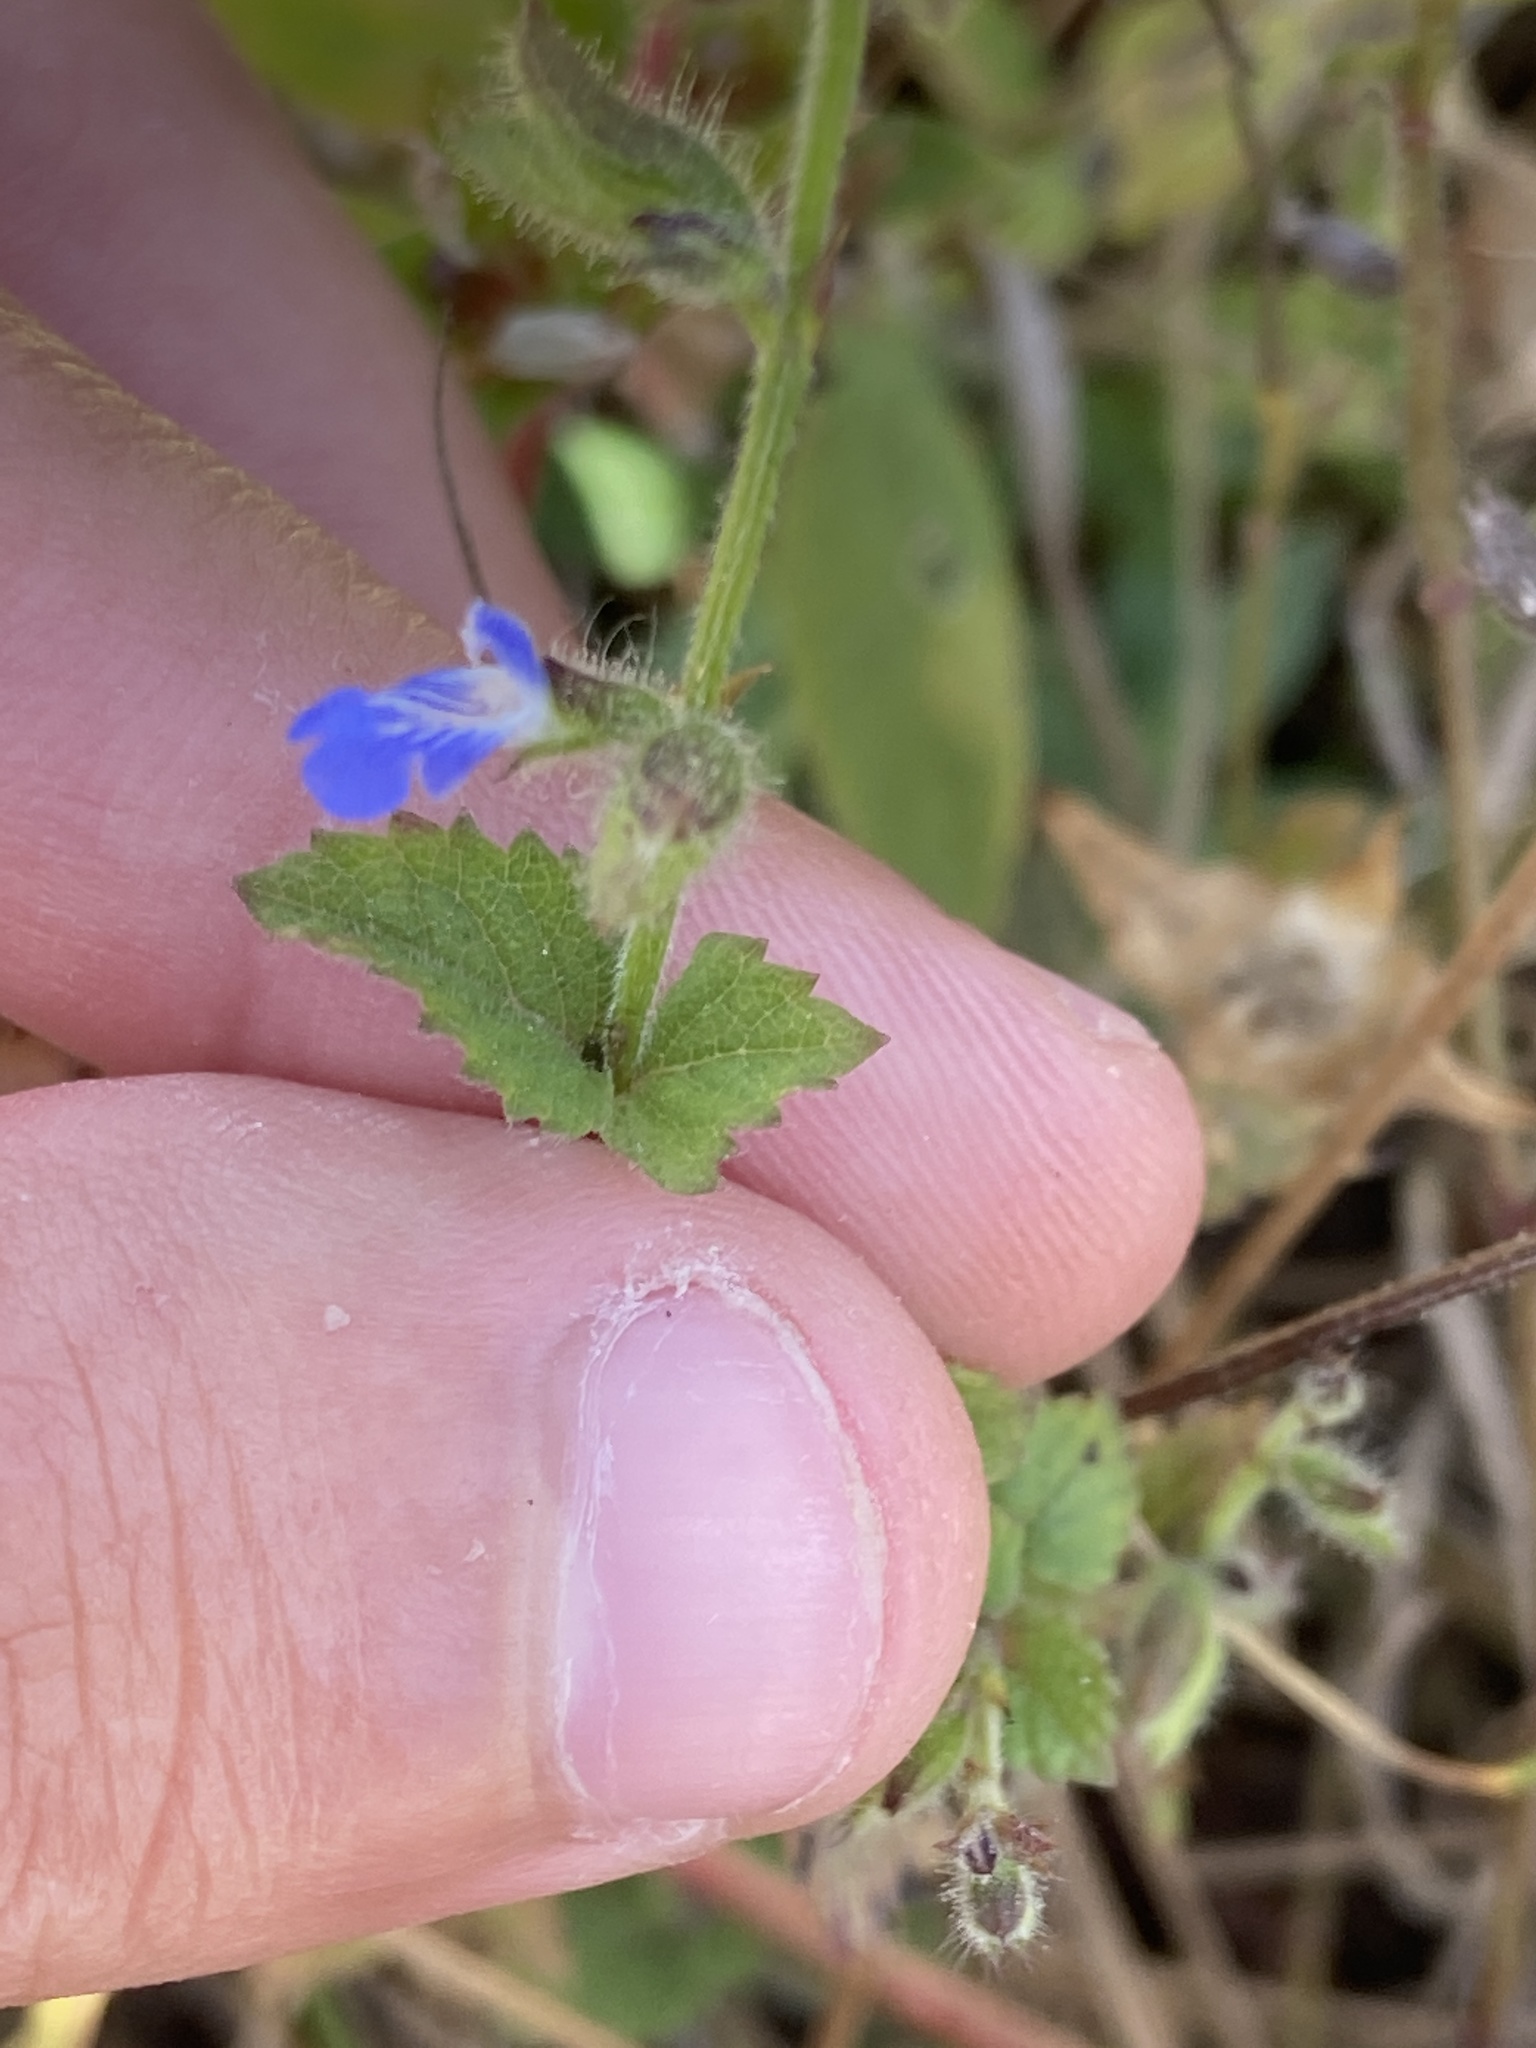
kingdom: Plantae
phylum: Tracheophyta
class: Magnoliopsida
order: Lamiales
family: Lamiaceae
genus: Salvia
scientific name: Salvia misella
